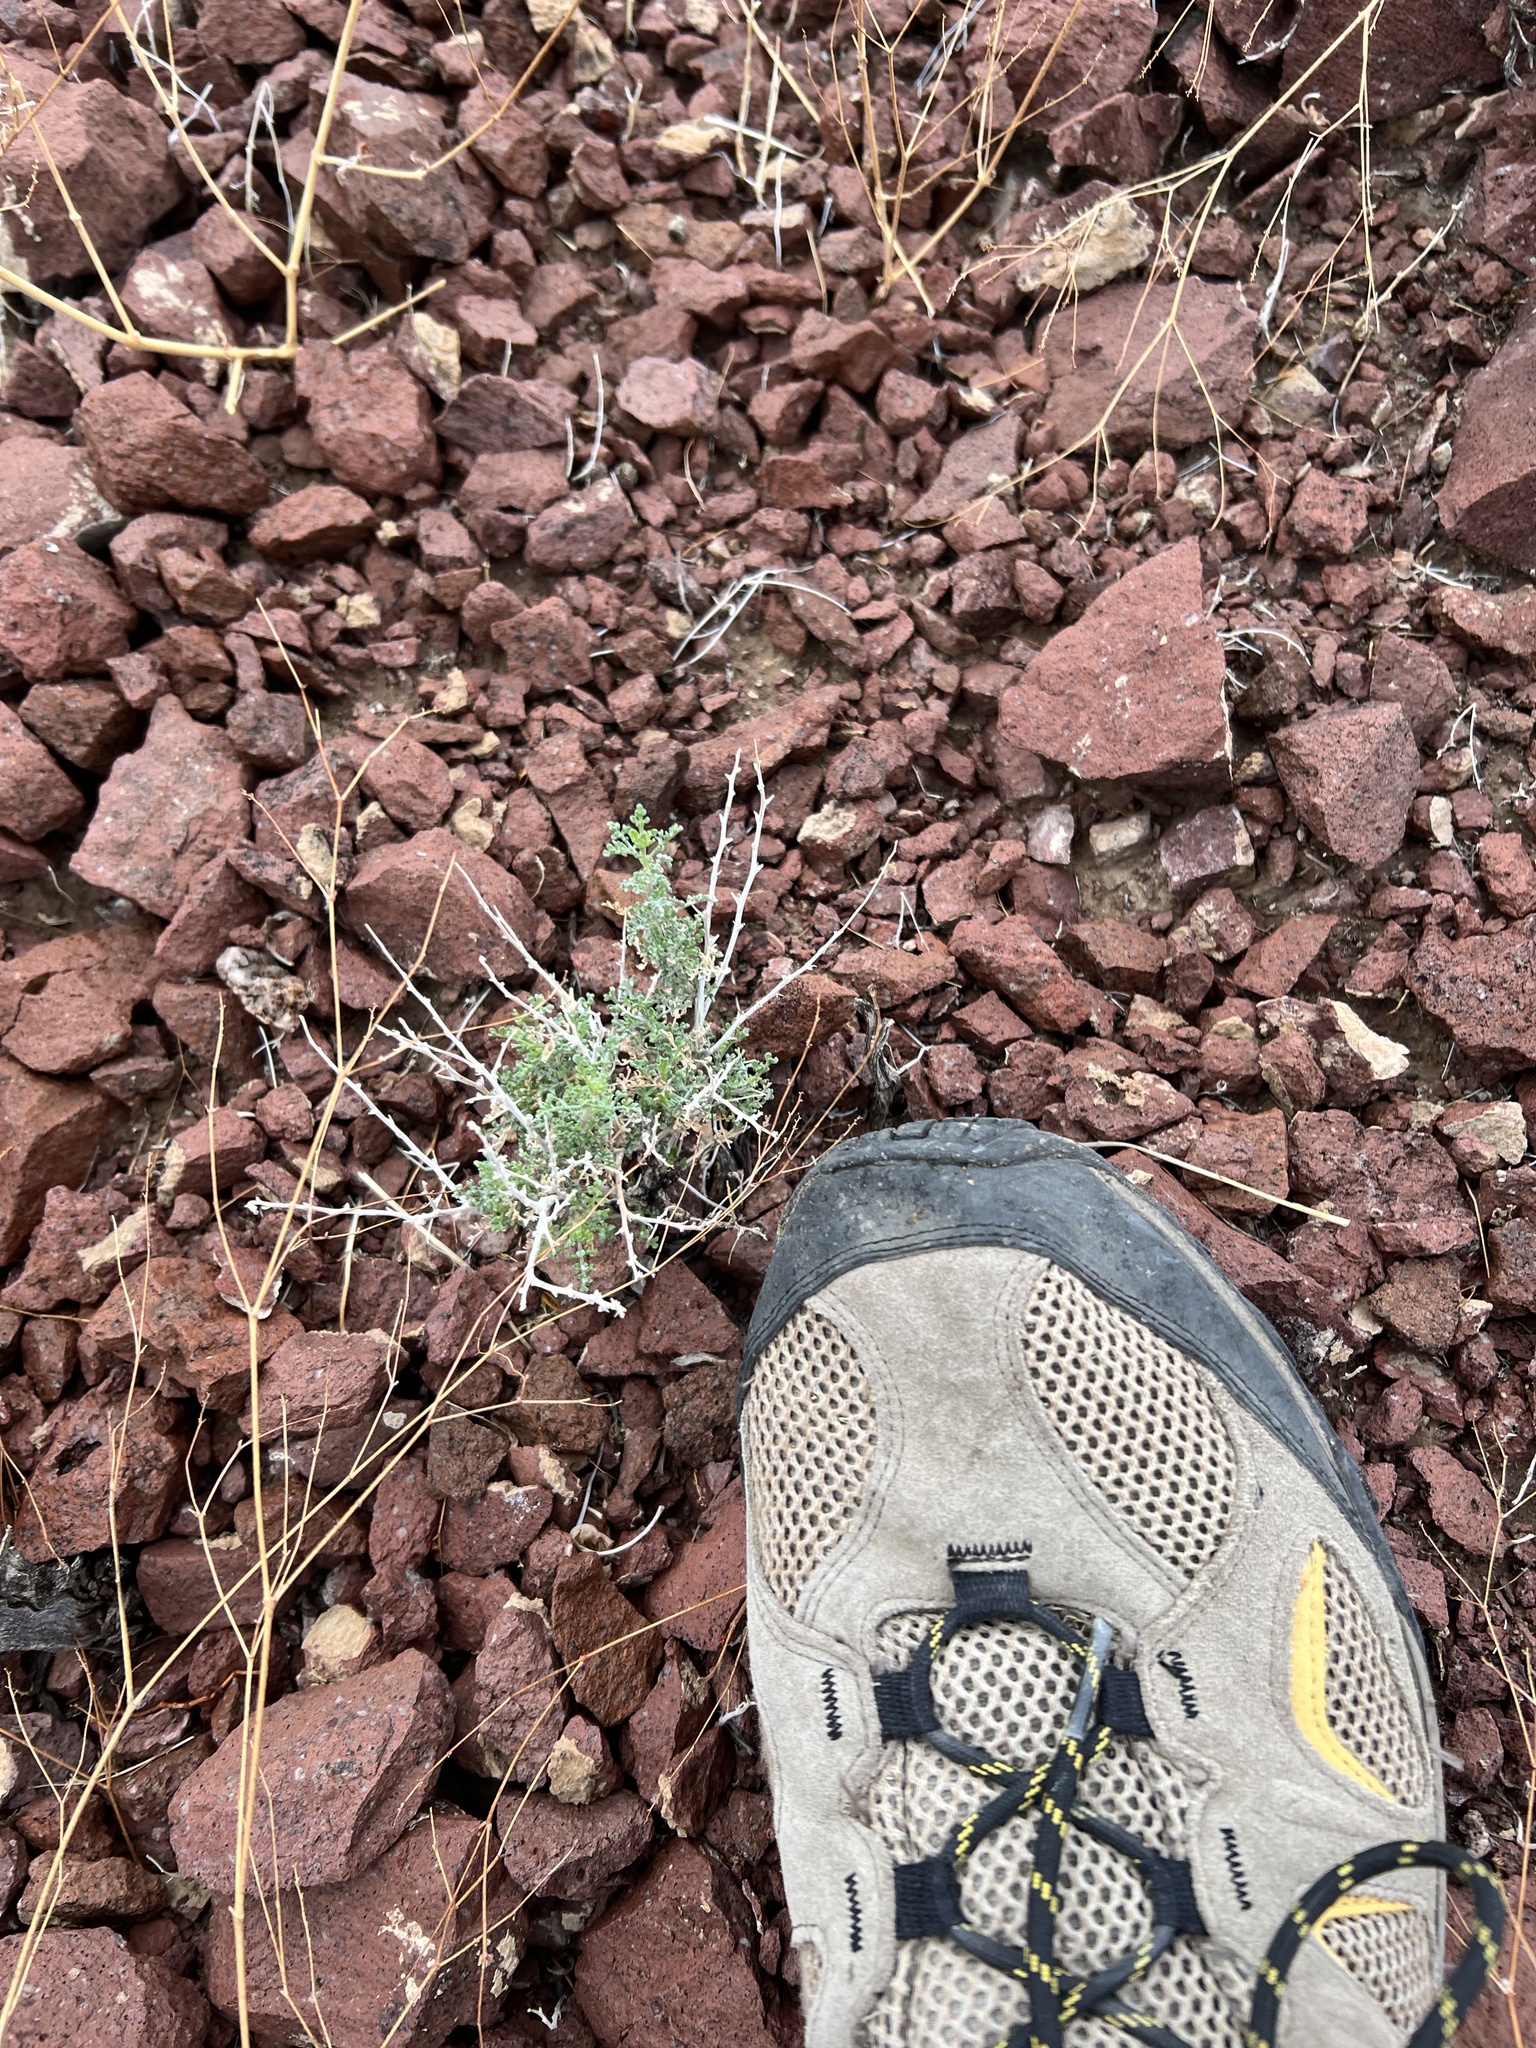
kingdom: Plantae
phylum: Tracheophyta
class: Magnoliopsida
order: Asterales
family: Asteraceae
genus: Ambrosia
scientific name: Ambrosia dumosa
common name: Bur-sage
